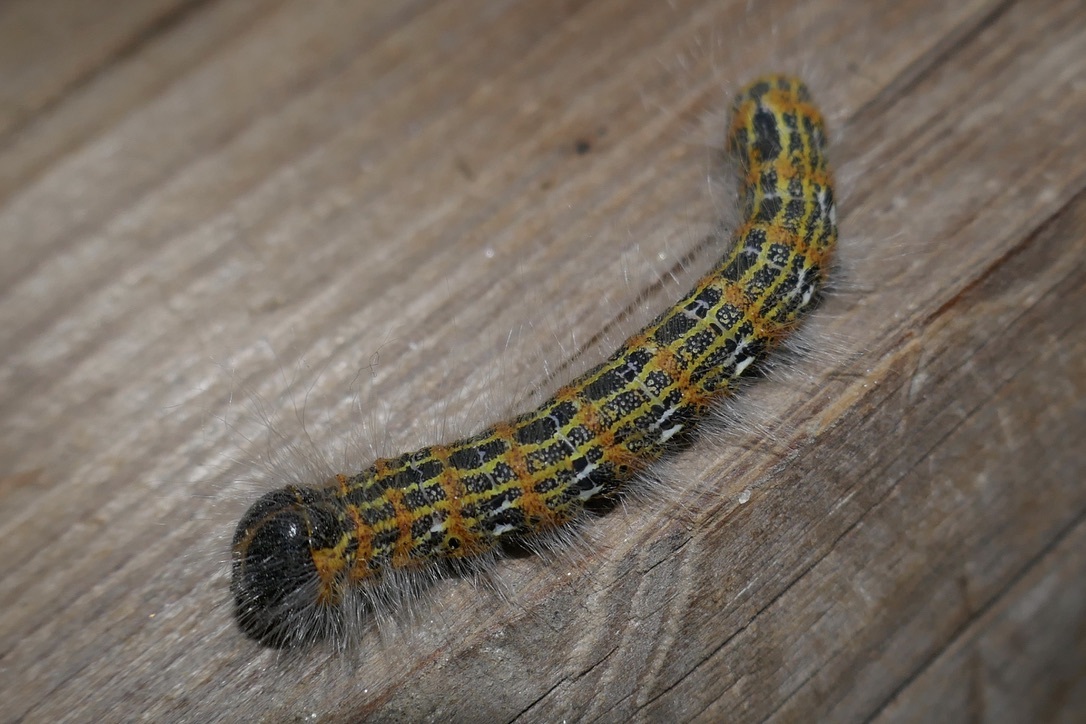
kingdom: Animalia
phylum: Arthropoda
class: Insecta
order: Lepidoptera
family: Notodontidae
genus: Phalera
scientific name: Phalera bucephala
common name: Buff-tip
